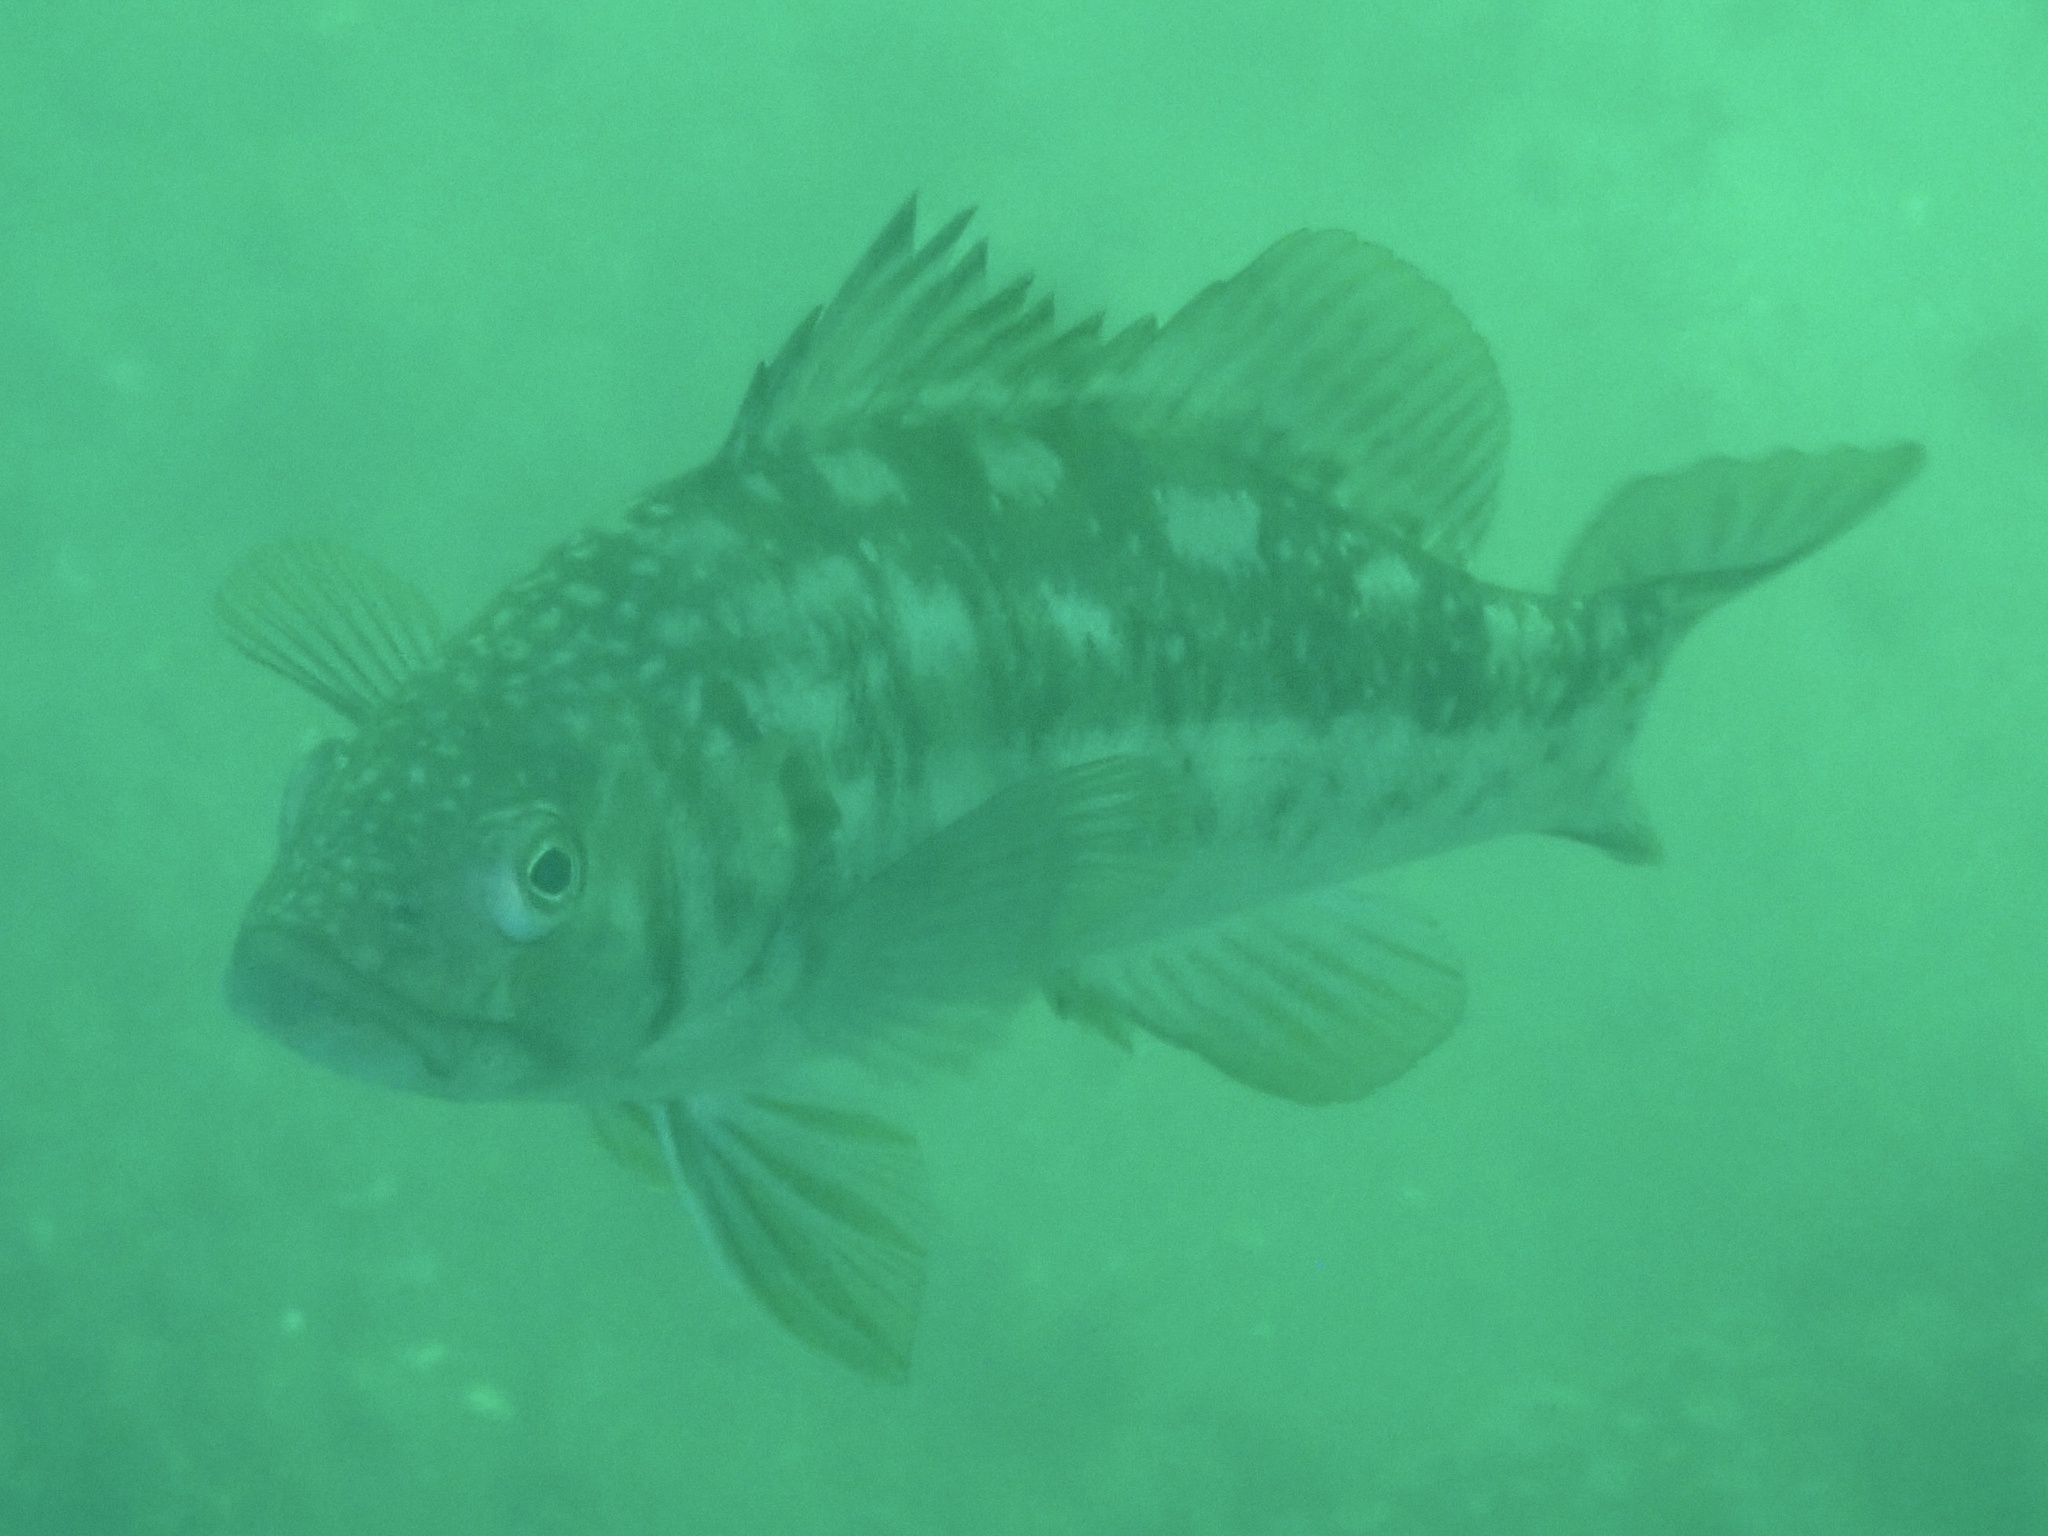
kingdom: Animalia
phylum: Chordata
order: Perciformes
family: Serranidae
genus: Paralabrax
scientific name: Paralabrax clathratus
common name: Kelp bass
